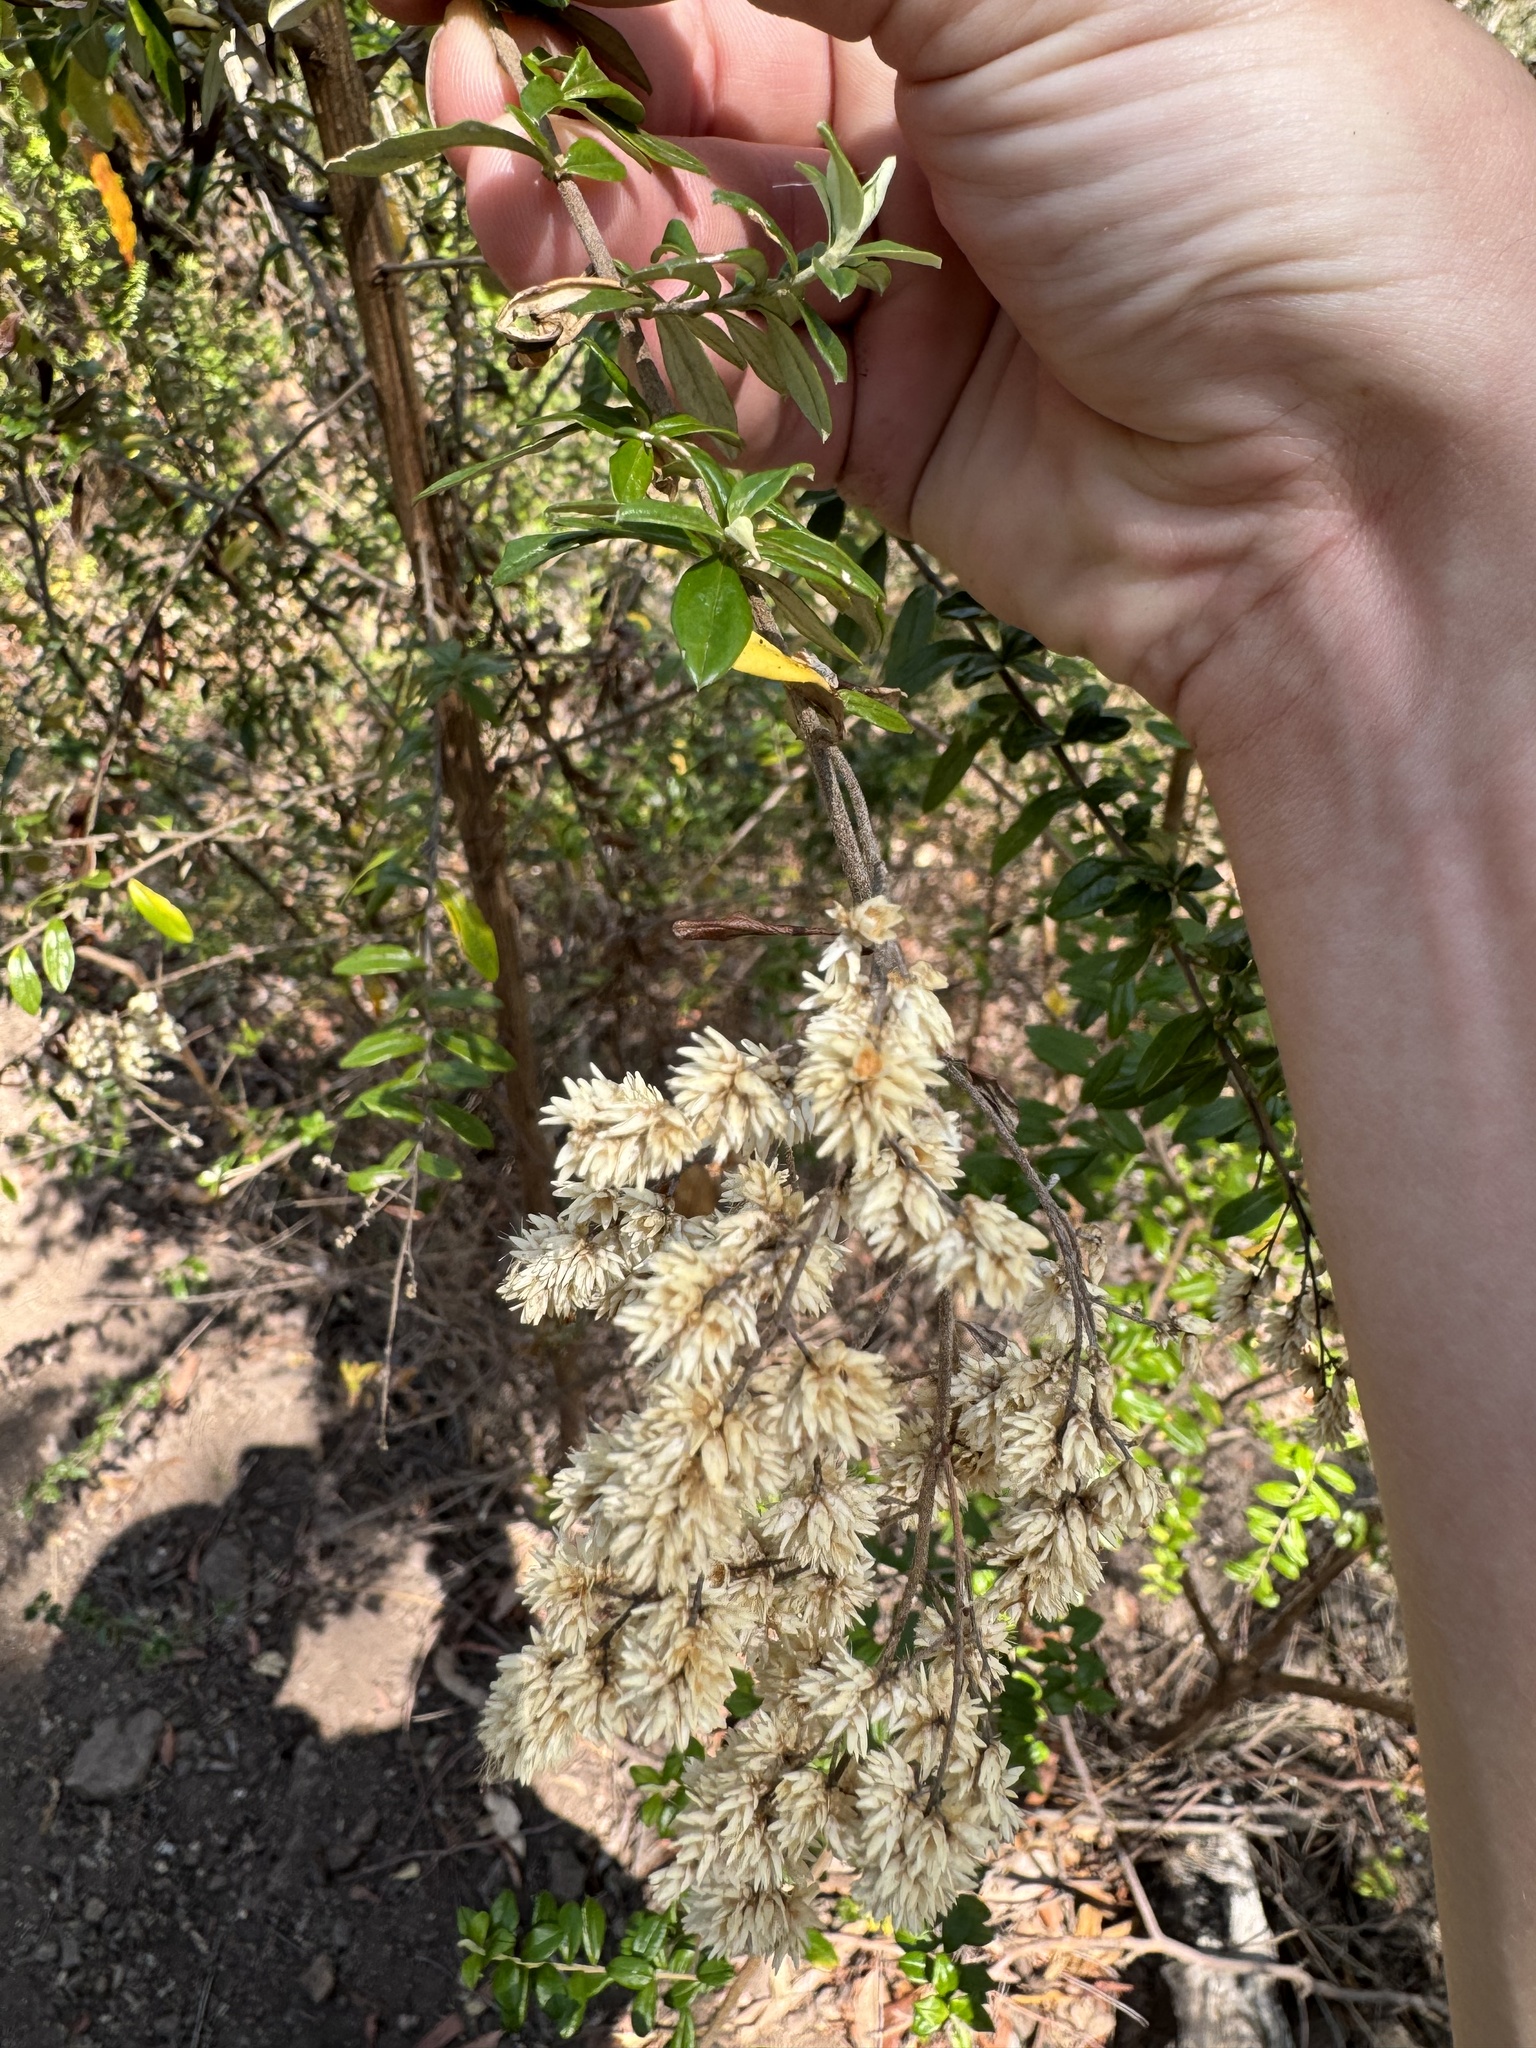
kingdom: Plantae
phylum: Tracheophyta
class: Magnoliopsida
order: Asterales
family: Asteraceae
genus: Cassinia
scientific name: Cassinia subtropica
